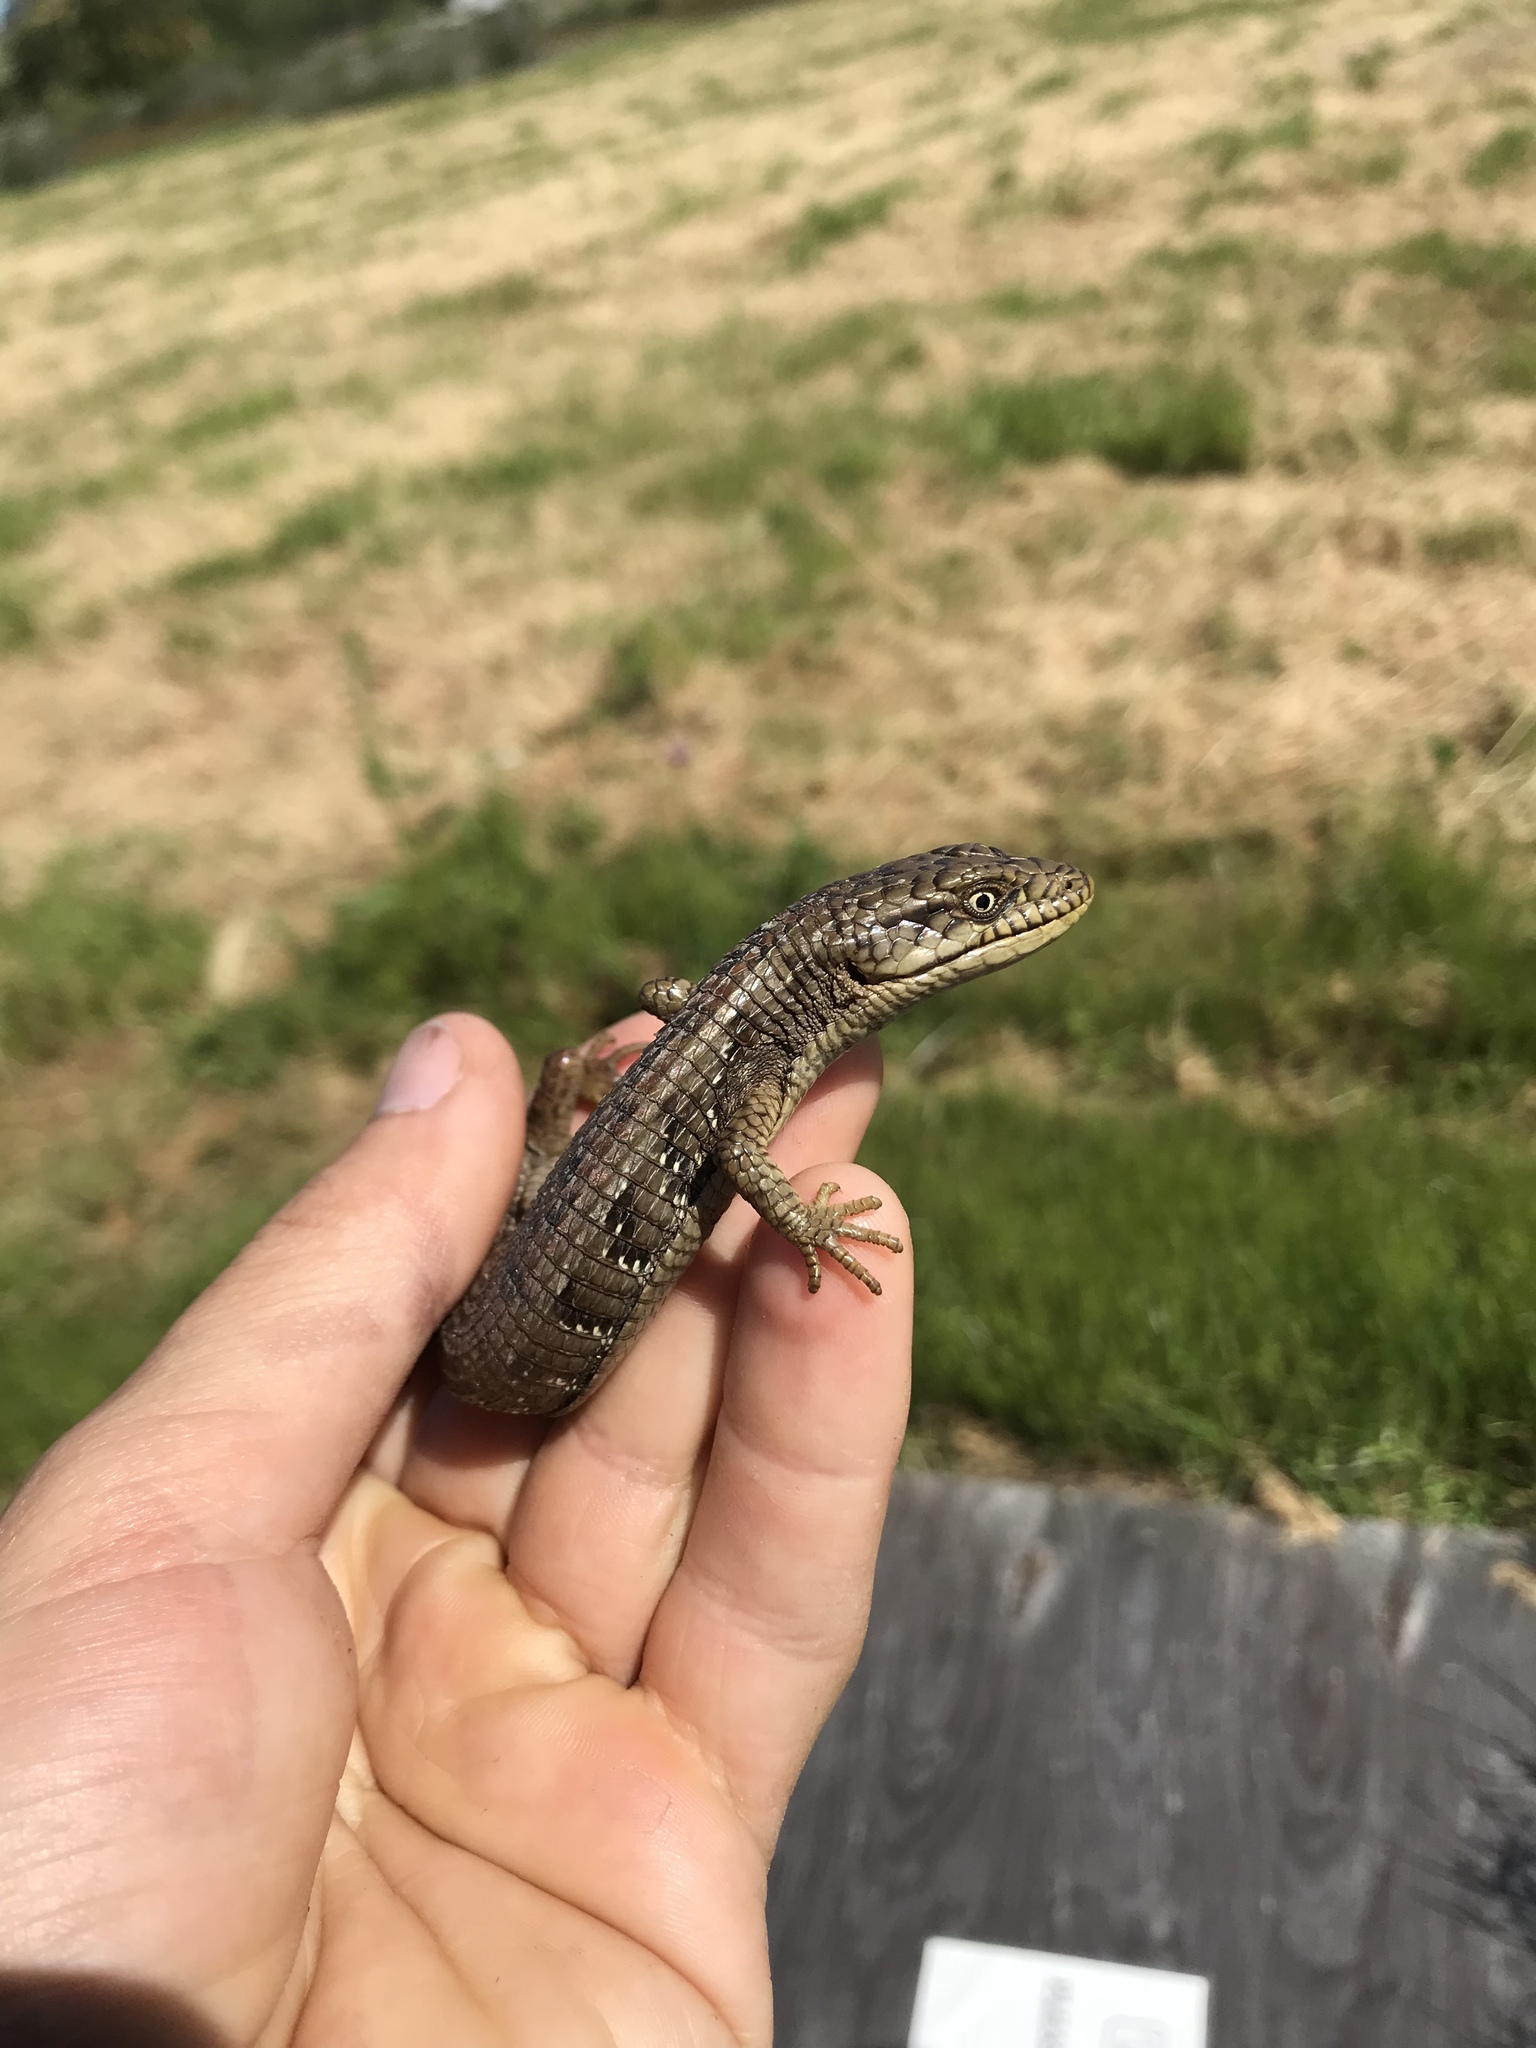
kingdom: Animalia
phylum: Chordata
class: Squamata
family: Anguidae
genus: Elgaria
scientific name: Elgaria multicarinata
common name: Southern alligator lizard
